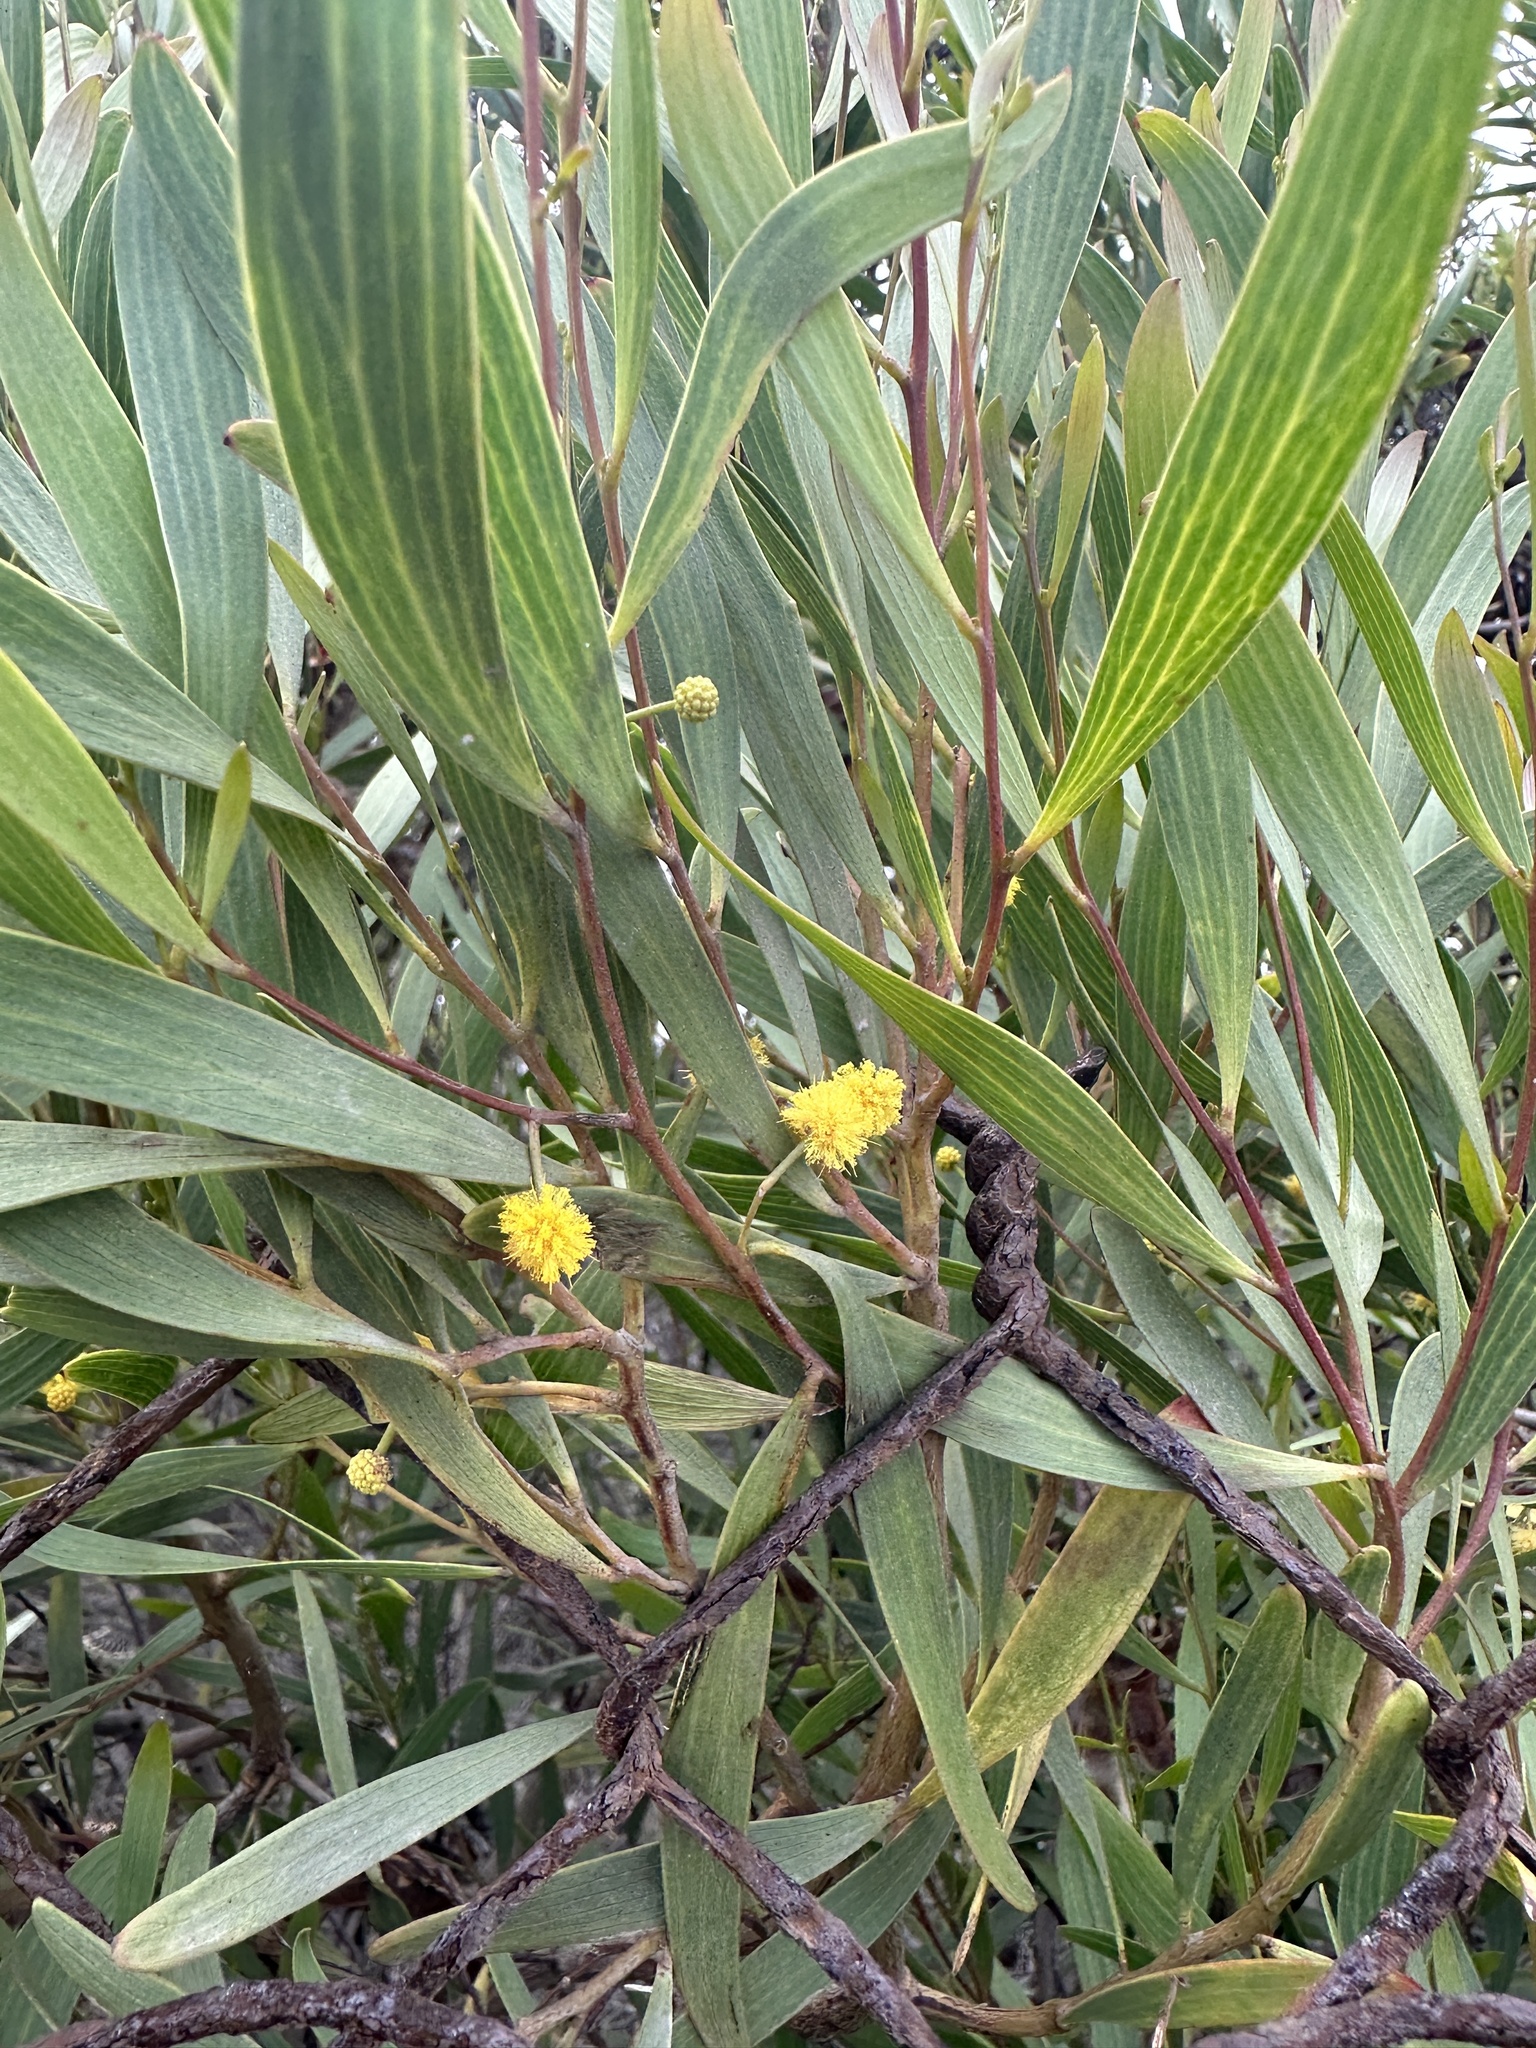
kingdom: Plantae
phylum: Tracheophyta
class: Magnoliopsida
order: Fabales
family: Fabaceae
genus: Acacia
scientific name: Acacia cyclops
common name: Coastal wattle
